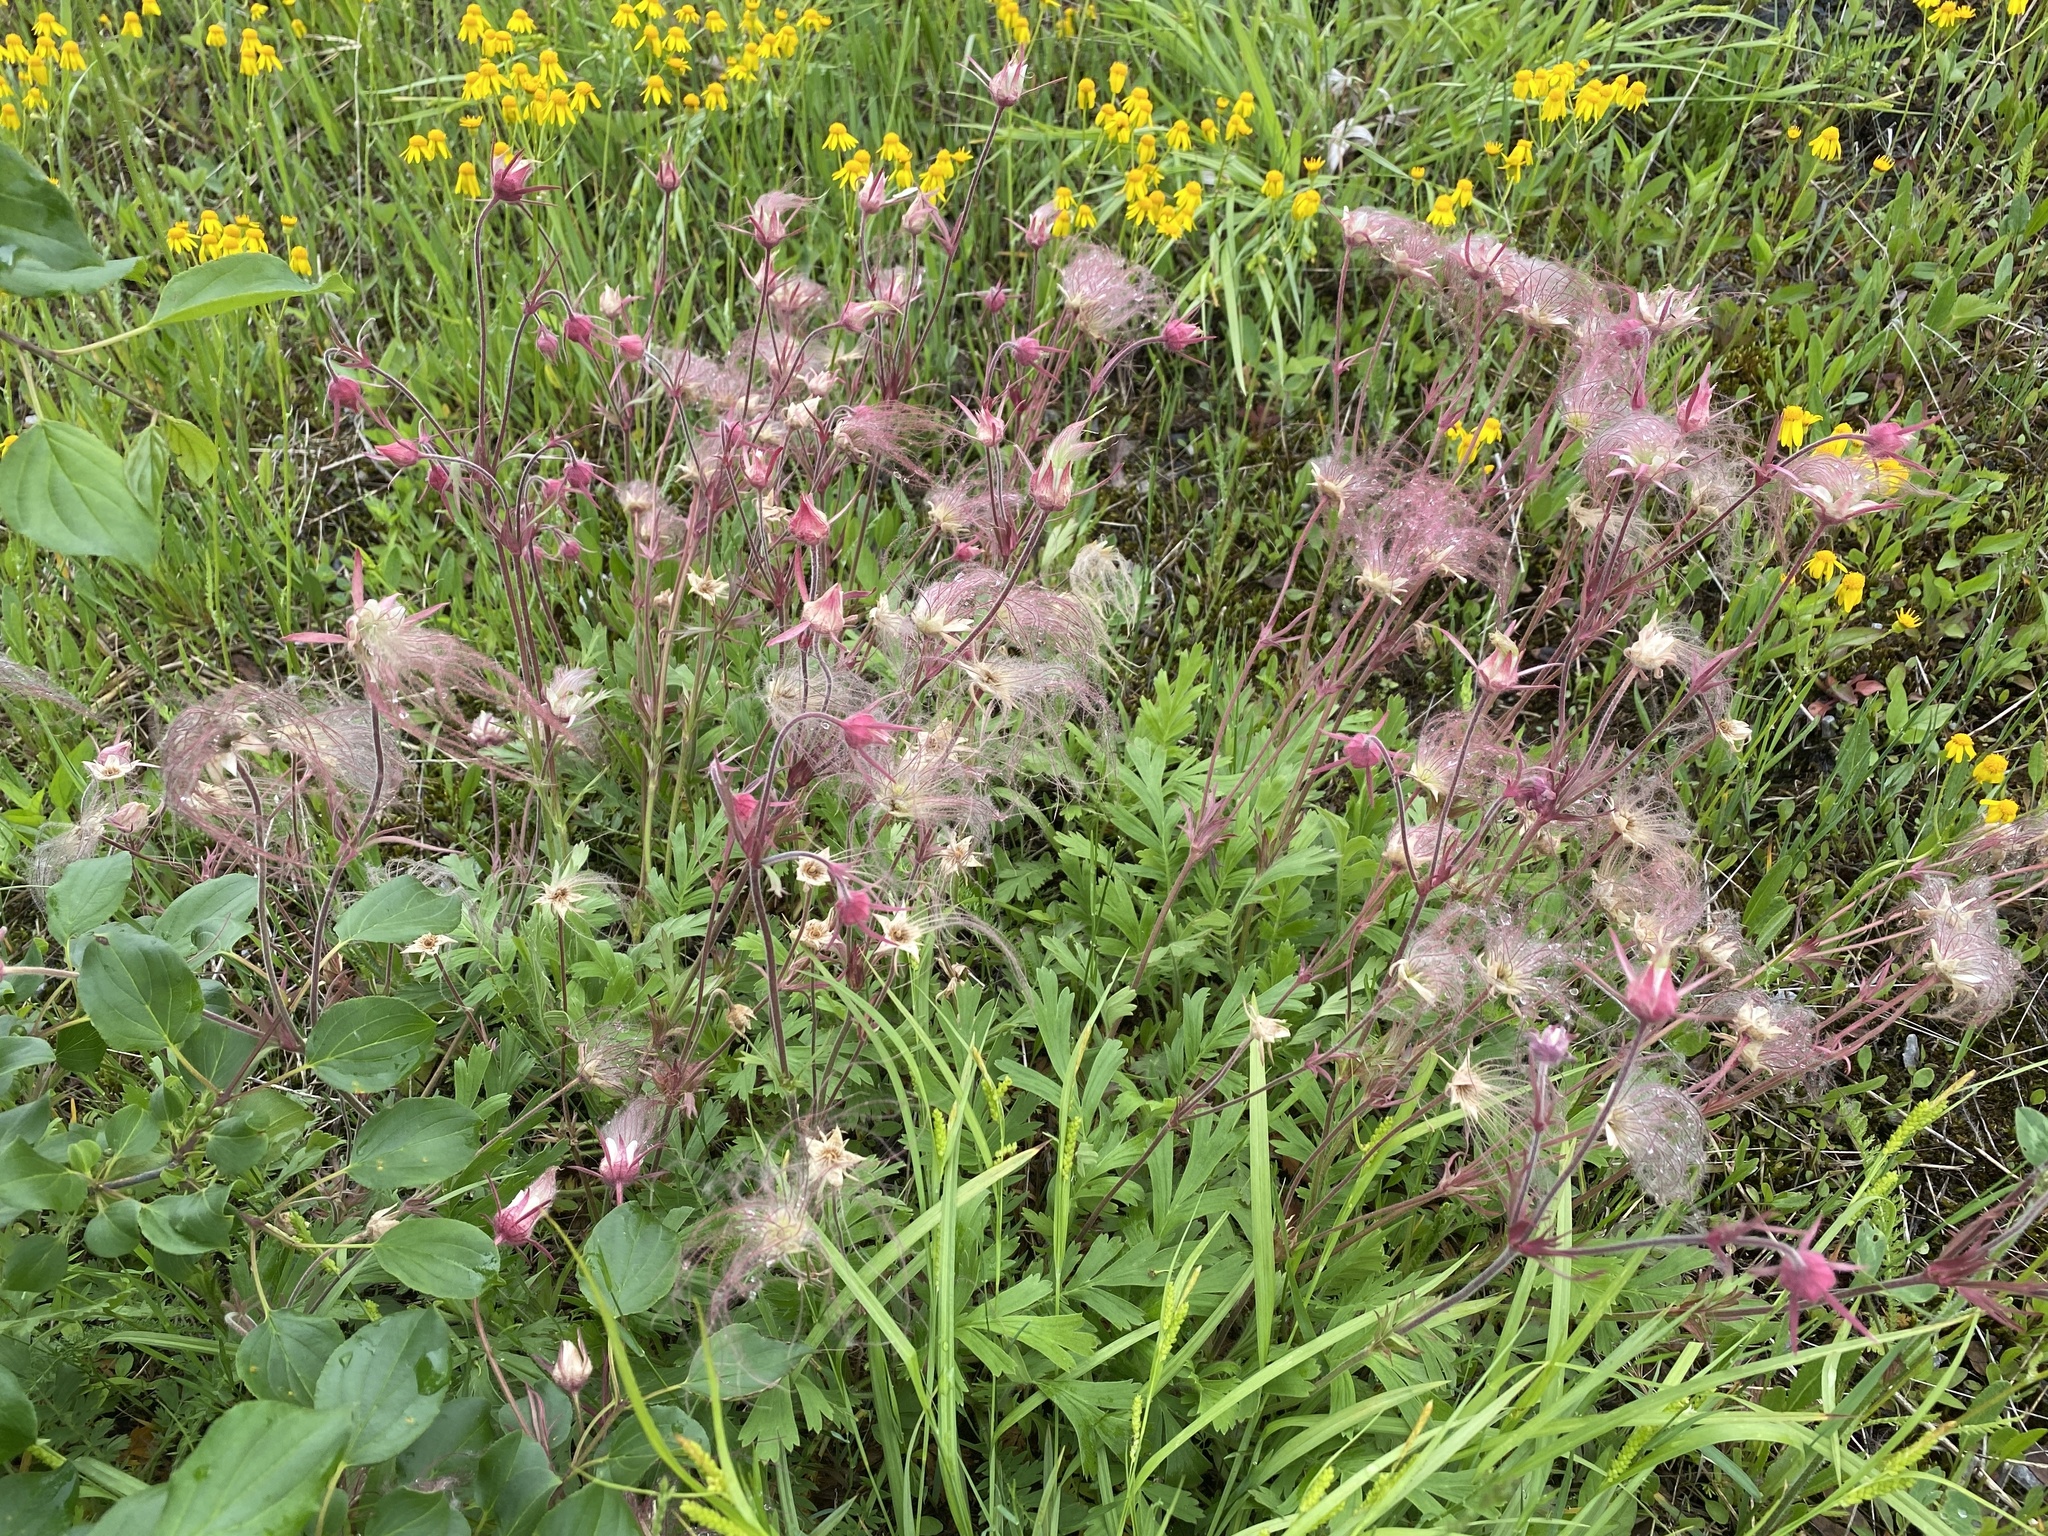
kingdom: Plantae
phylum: Tracheophyta
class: Magnoliopsida
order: Rosales
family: Rosaceae
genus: Geum
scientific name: Geum triflorum
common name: Old man's whiskers
